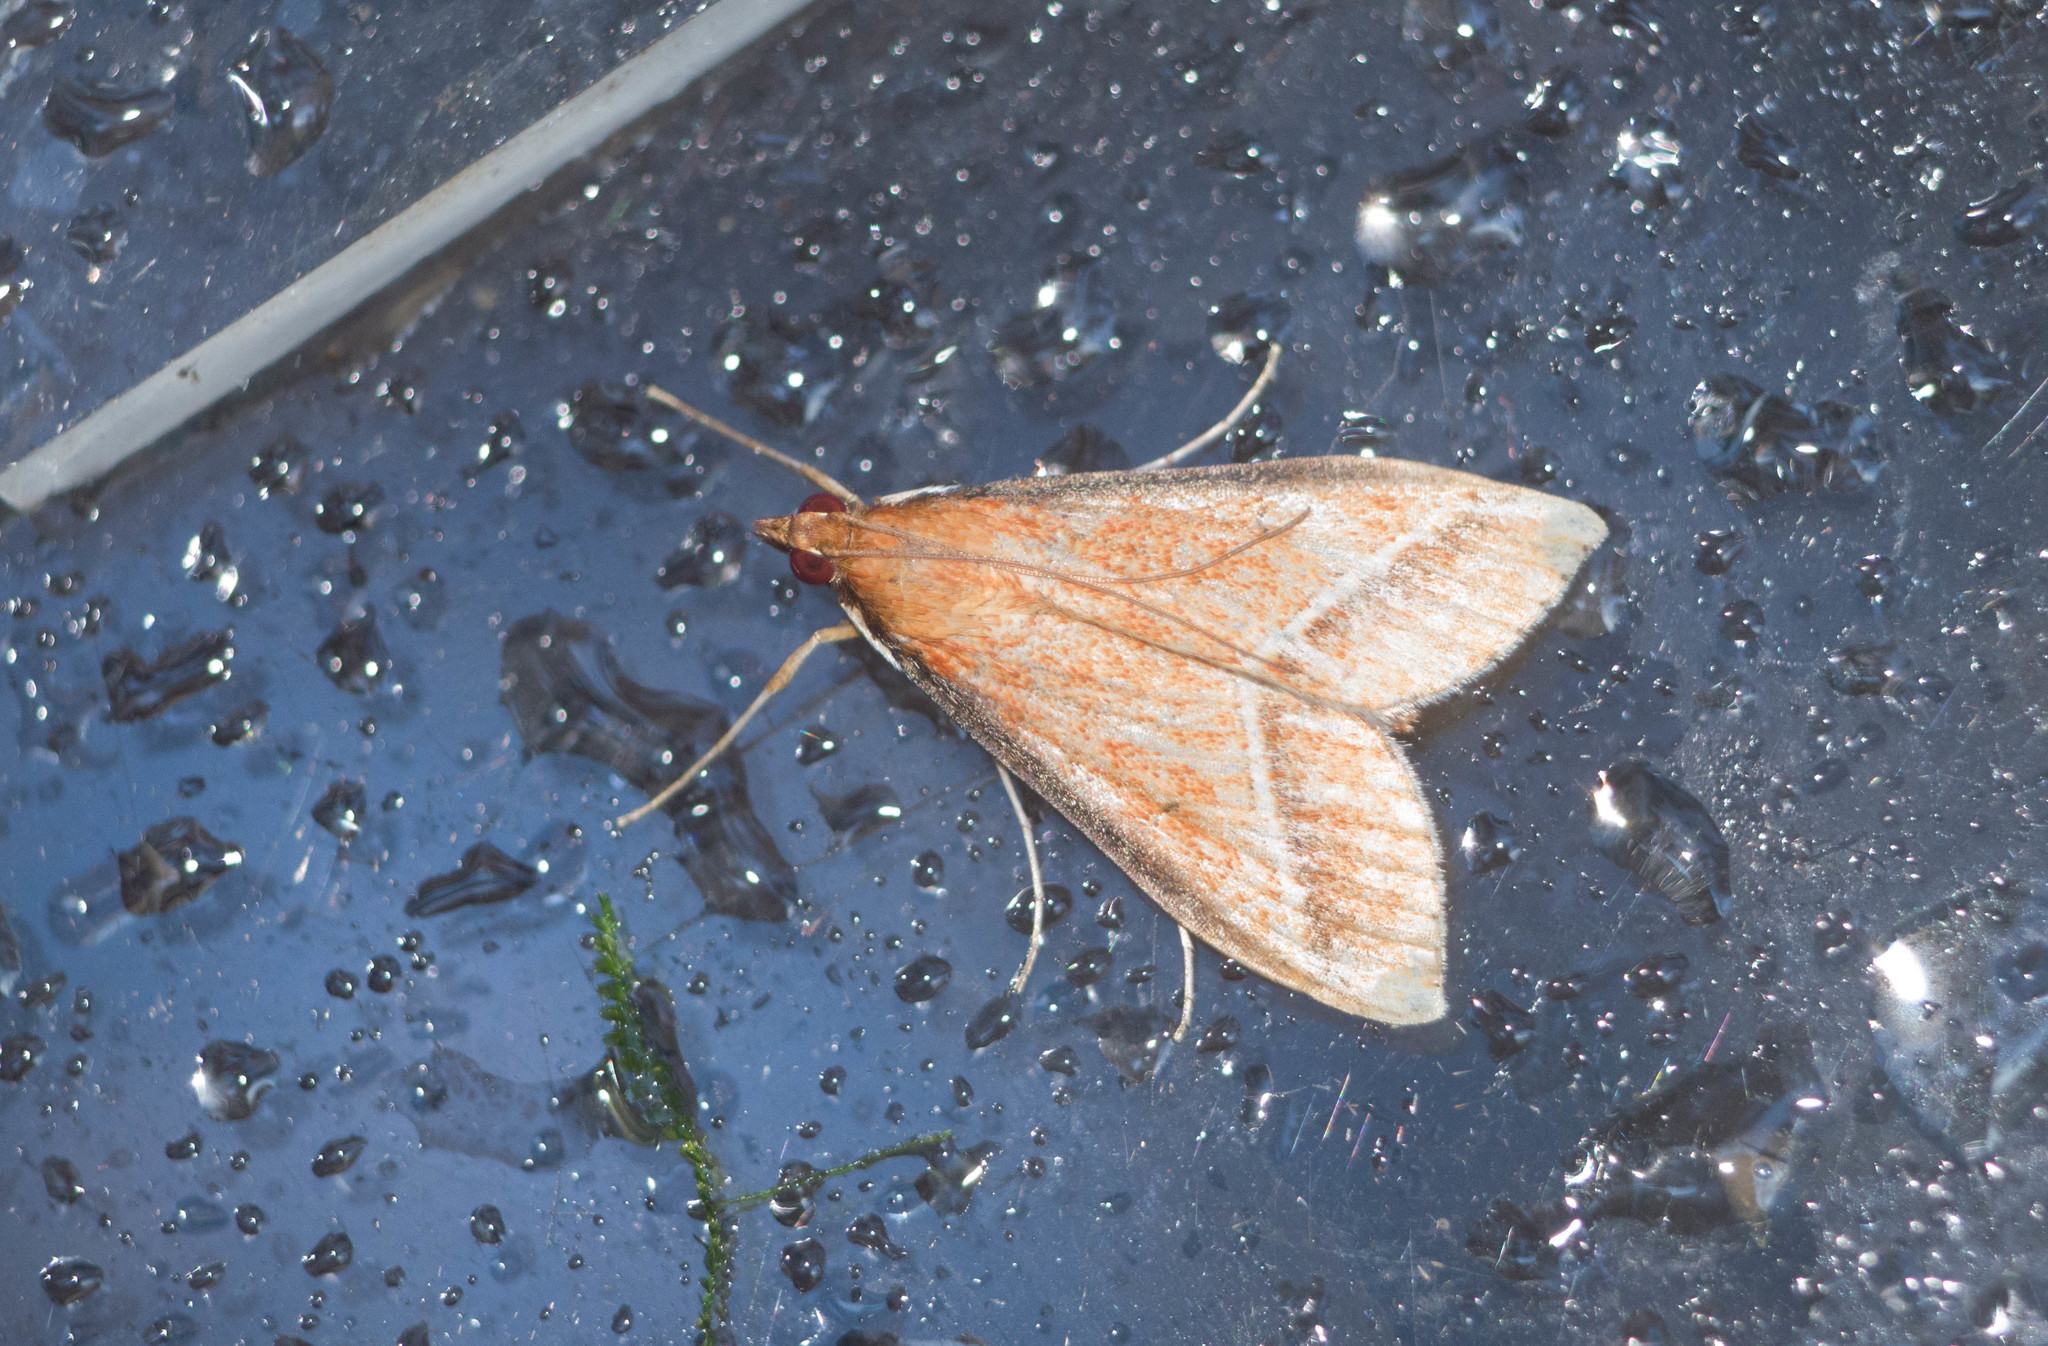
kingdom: Animalia
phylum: Arthropoda
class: Insecta
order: Lepidoptera
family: Crambidae
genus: Omiodes
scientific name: Omiodes monogramma
